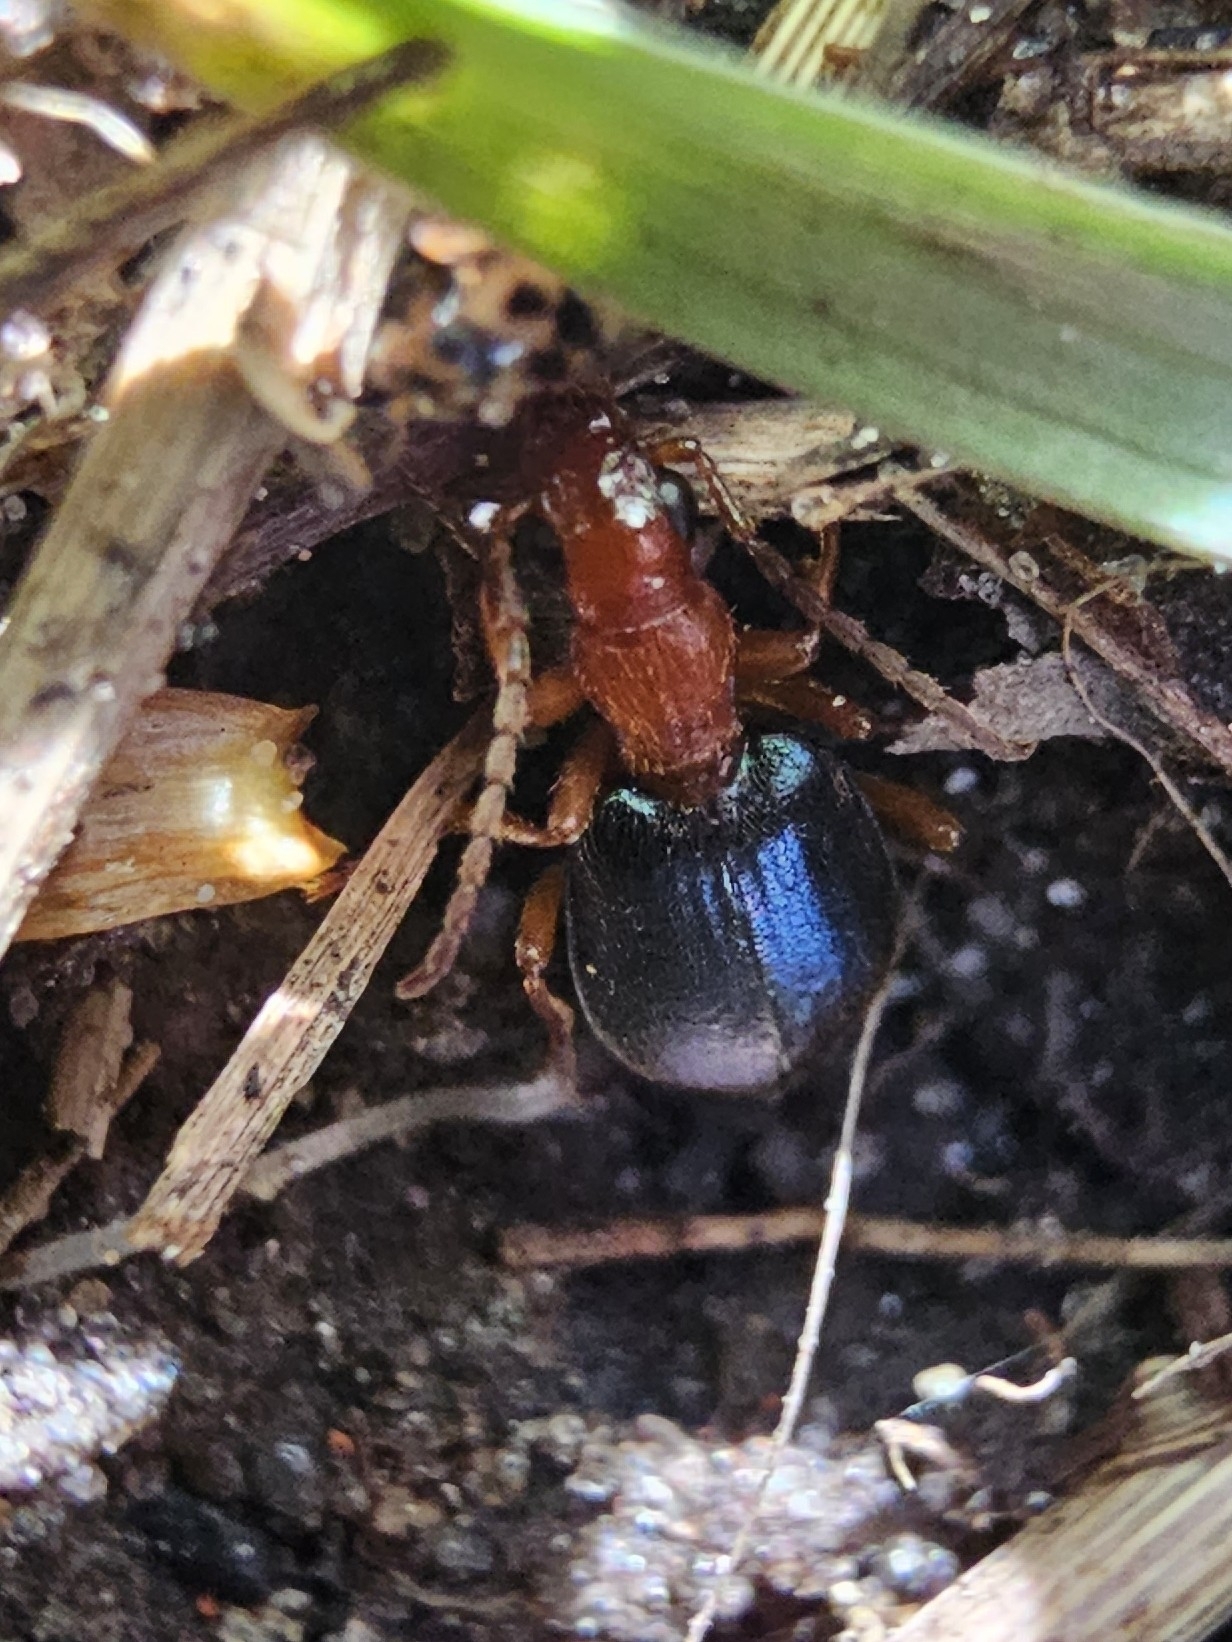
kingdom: Animalia
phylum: Arthropoda
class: Insecta
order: Coleoptera
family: Carabidae
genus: Brachinus
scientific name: Brachinus crepitans
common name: Bombadier beetle
